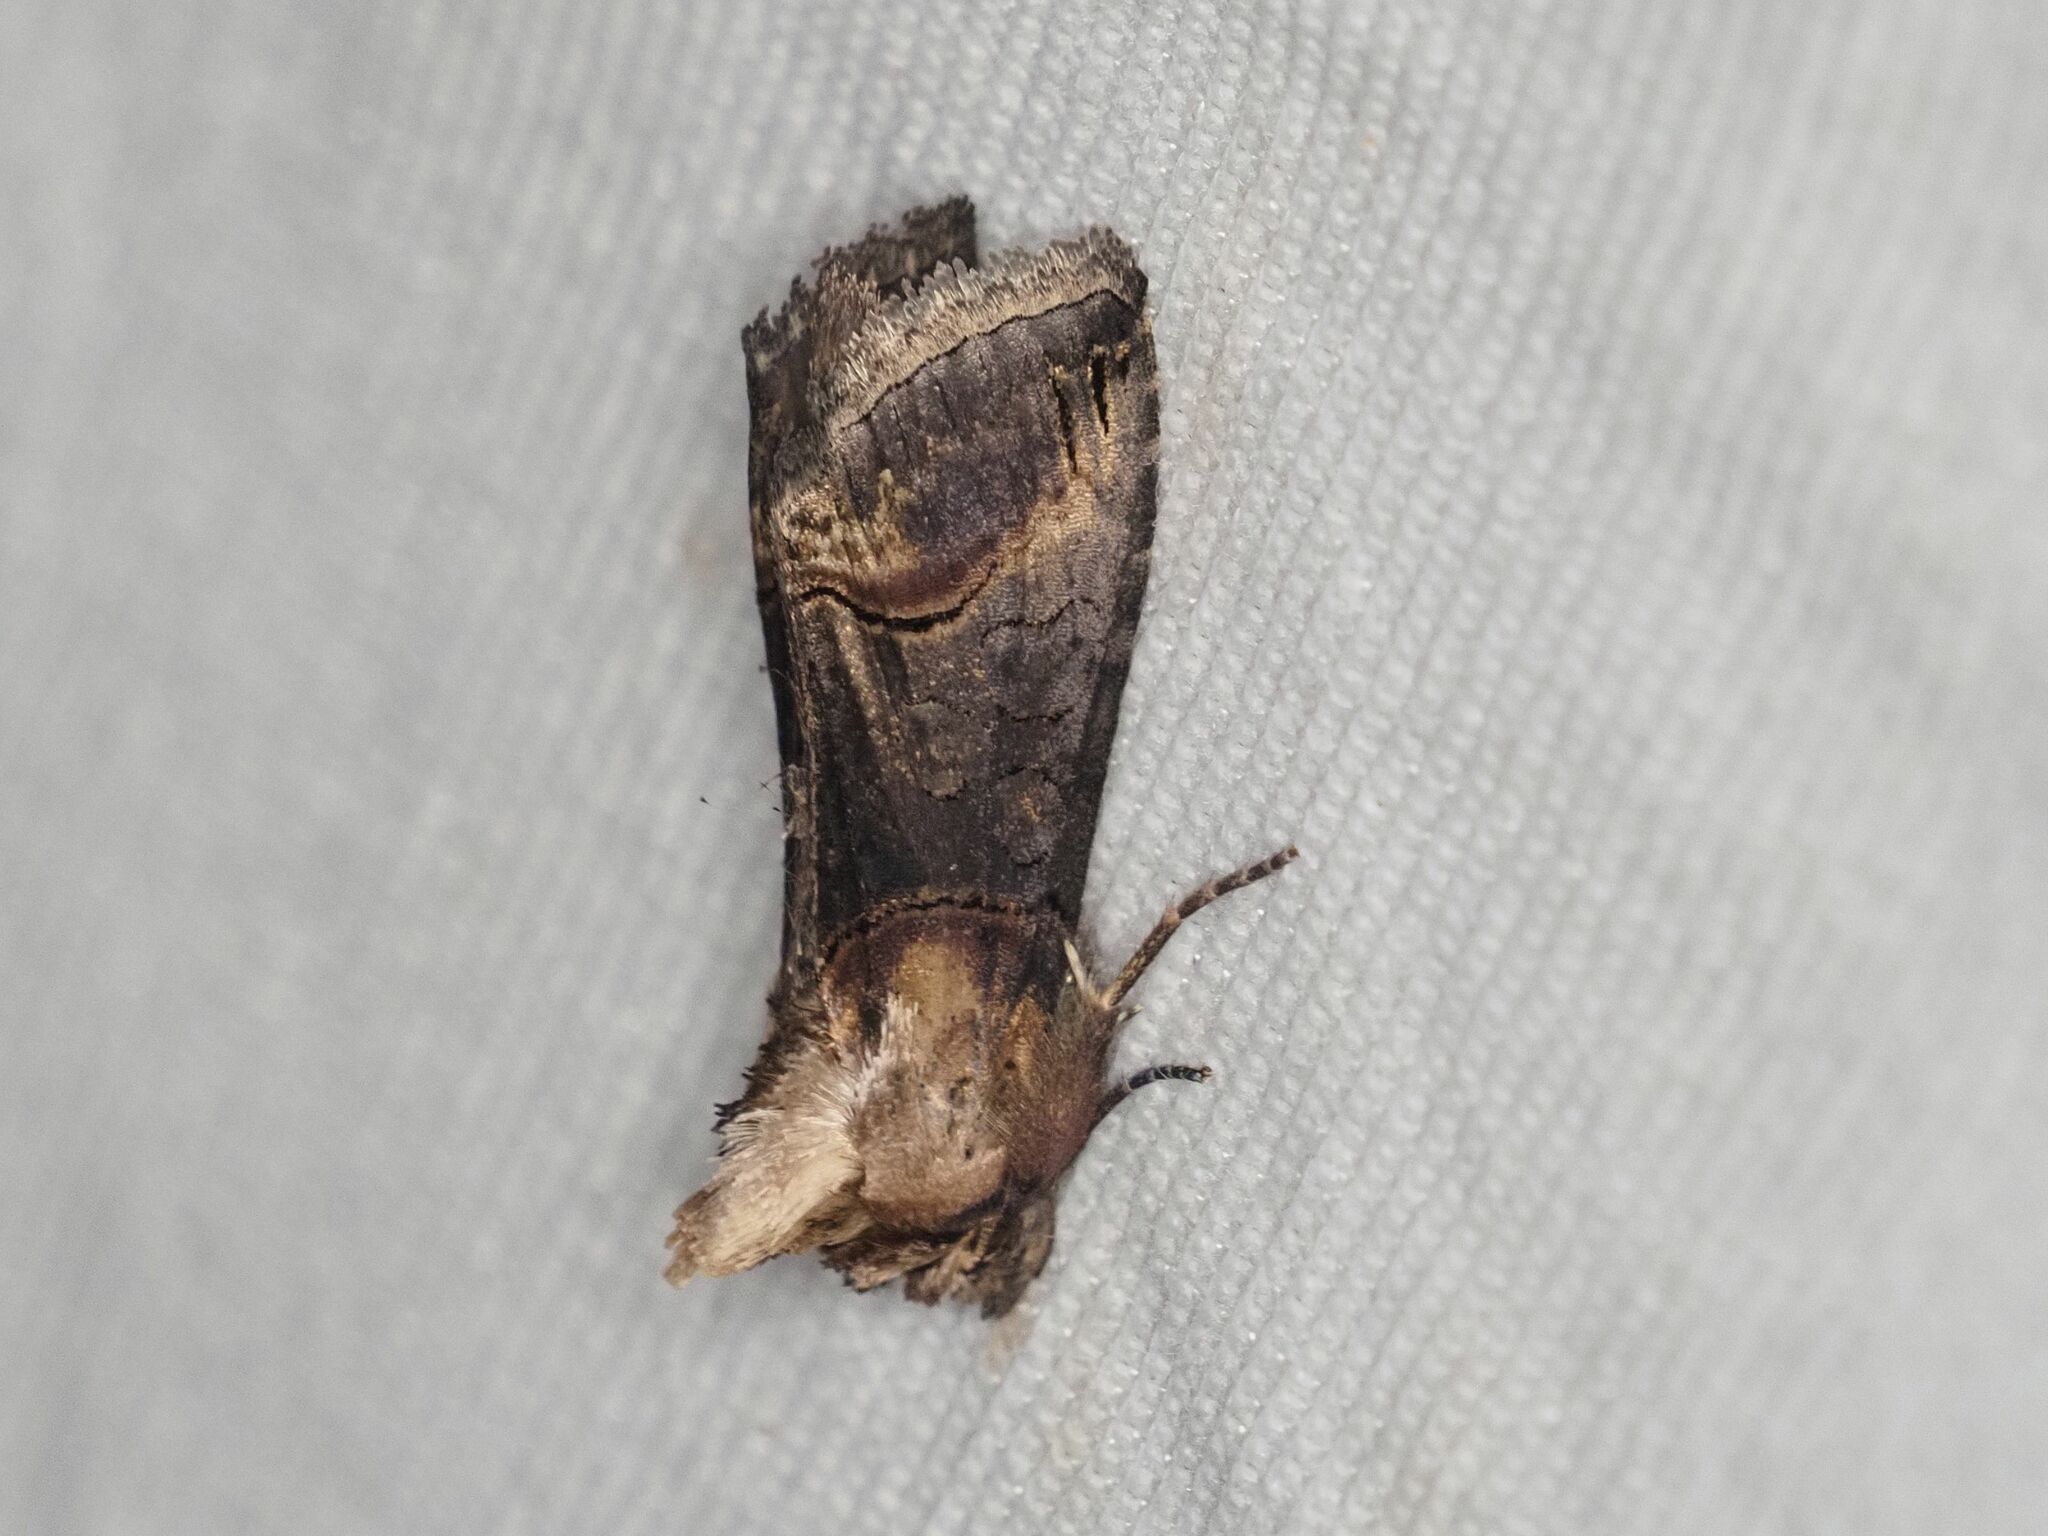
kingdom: Animalia
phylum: Arthropoda
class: Insecta
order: Lepidoptera
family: Noctuidae
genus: Abrostola
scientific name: Abrostola triplasia
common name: Dark spectacle
